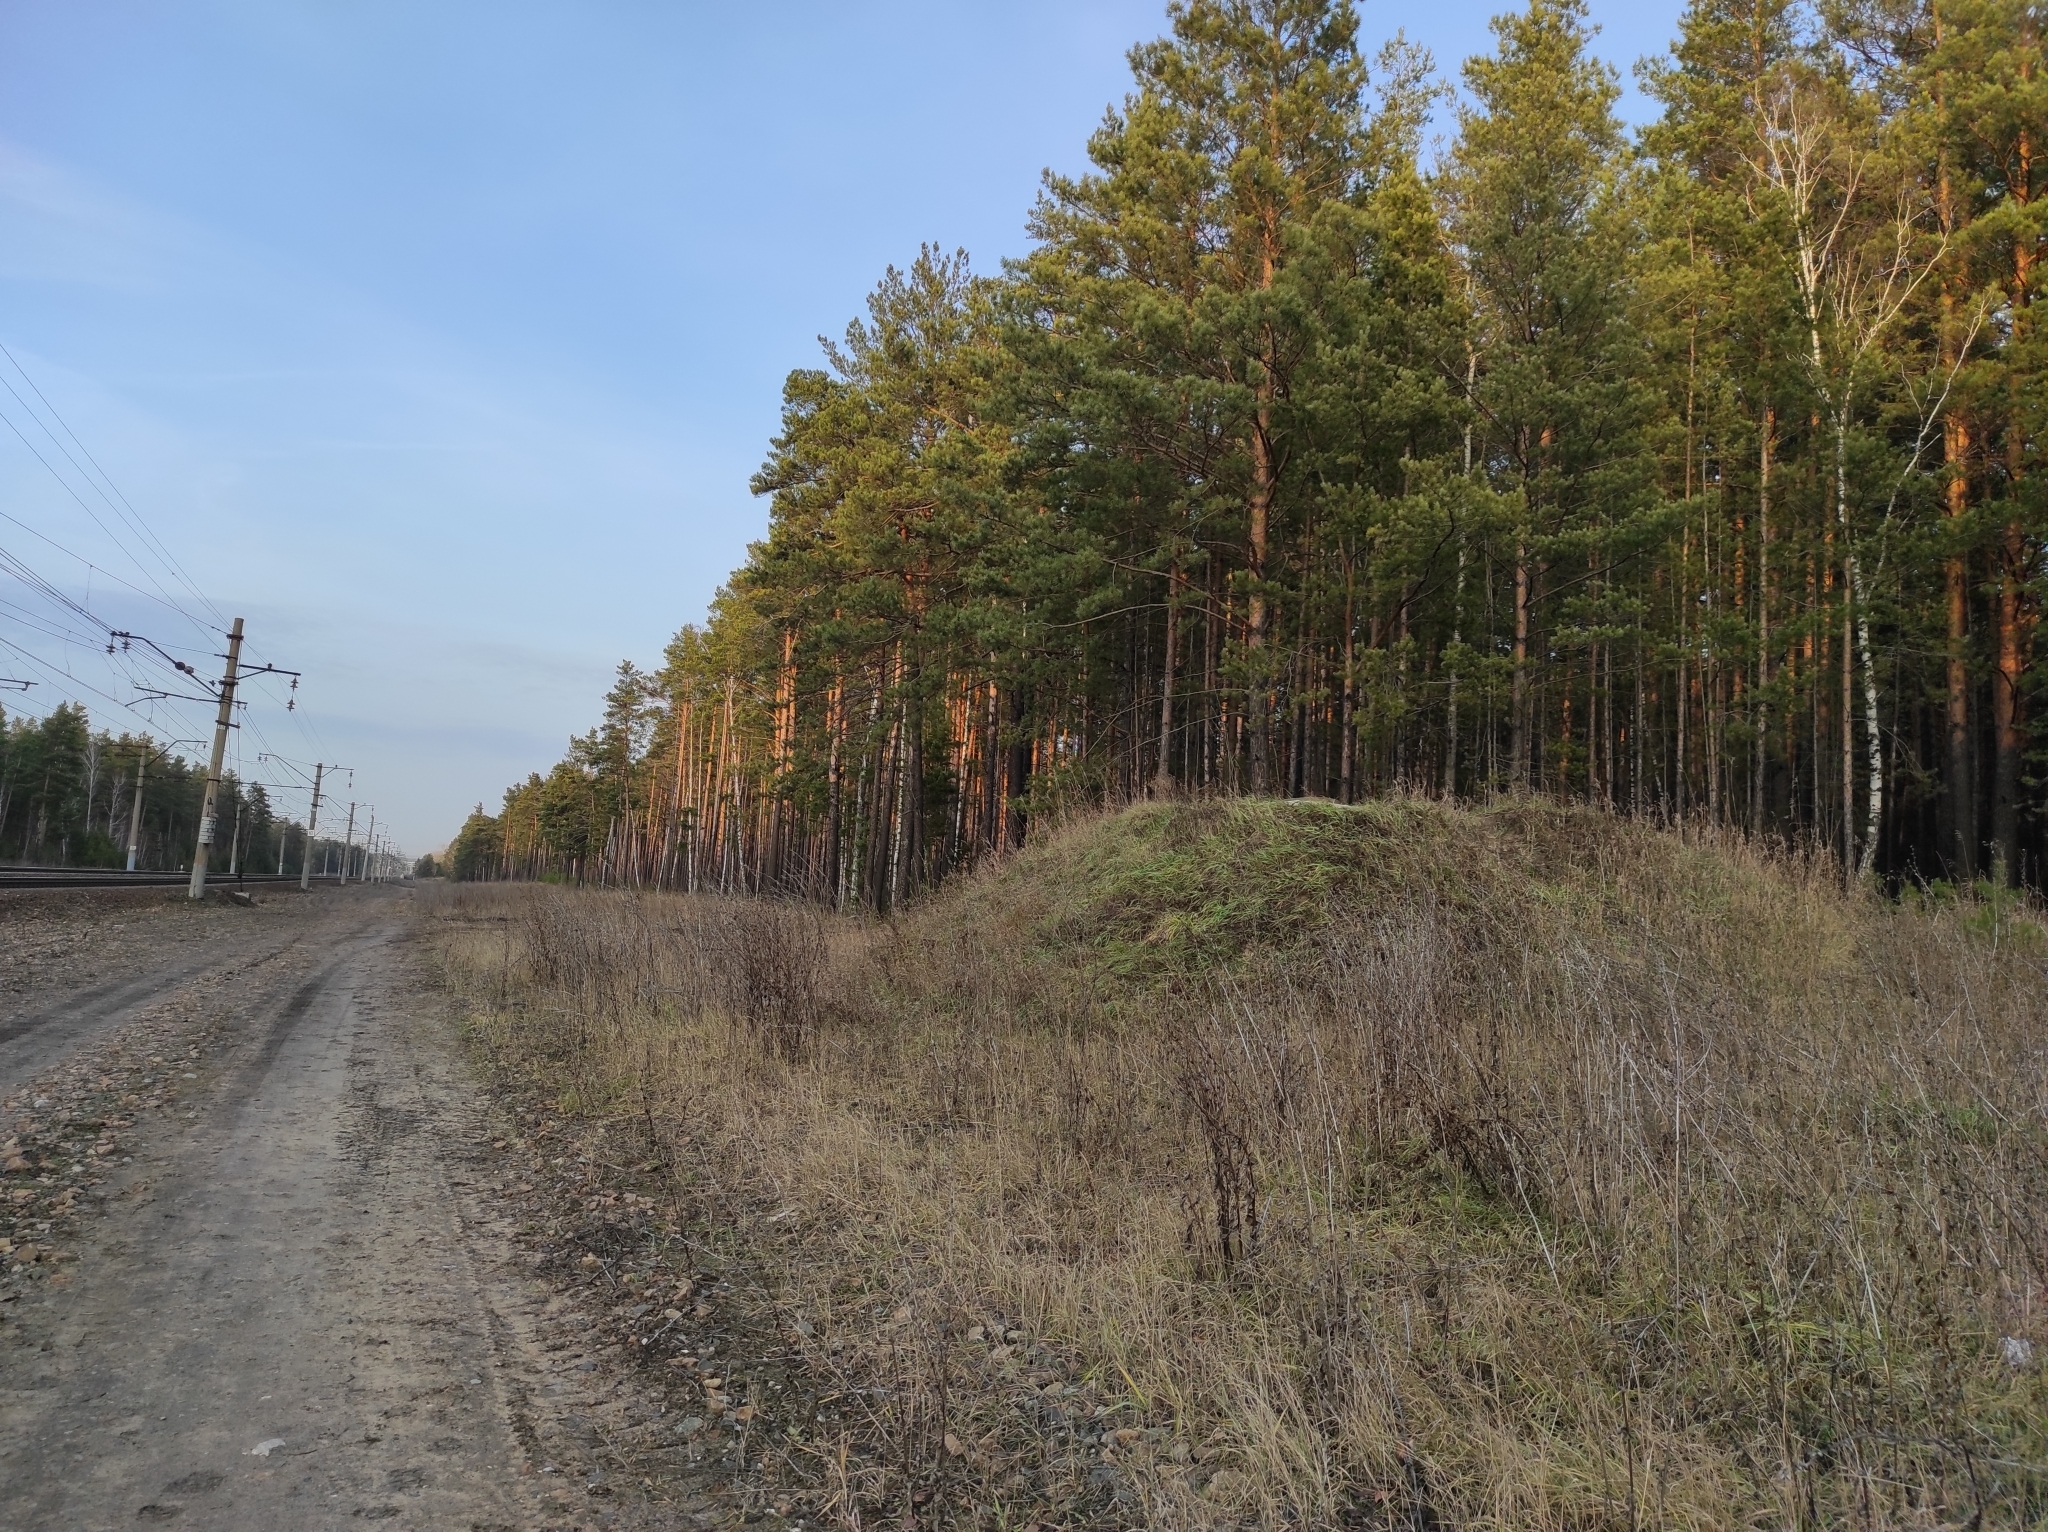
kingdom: Plantae
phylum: Tracheophyta
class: Pinopsida
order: Pinales
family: Pinaceae
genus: Pinus
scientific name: Pinus sylvestris
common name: Scots pine
